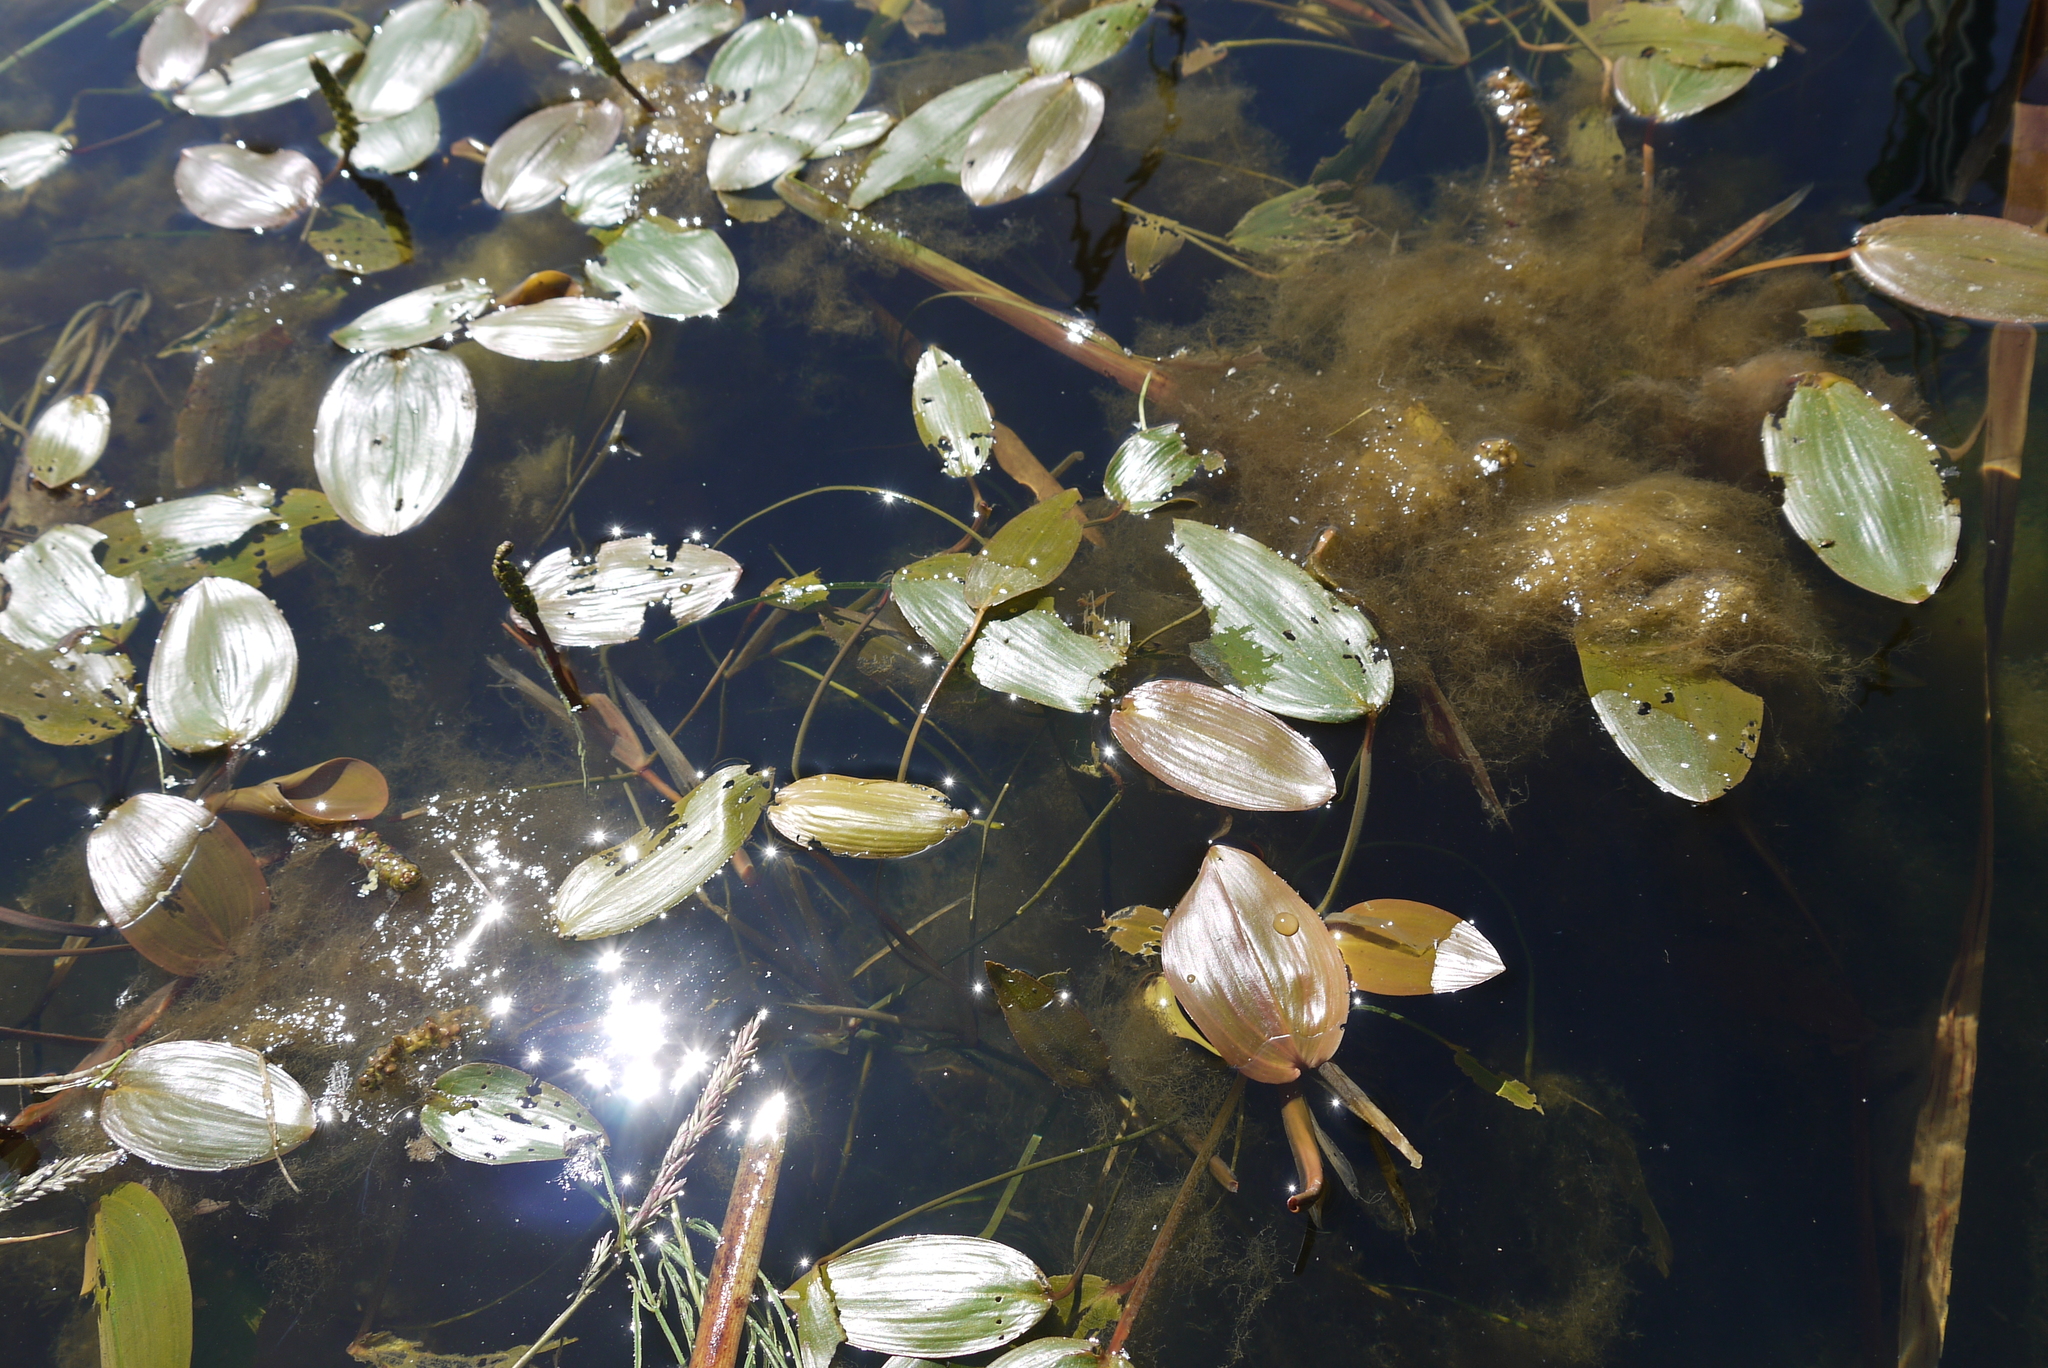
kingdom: Plantae
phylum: Tracheophyta
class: Liliopsida
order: Alismatales
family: Potamogetonaceae
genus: Potamogeton
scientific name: Potamogeton natans
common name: Broad-leaved pondweed
